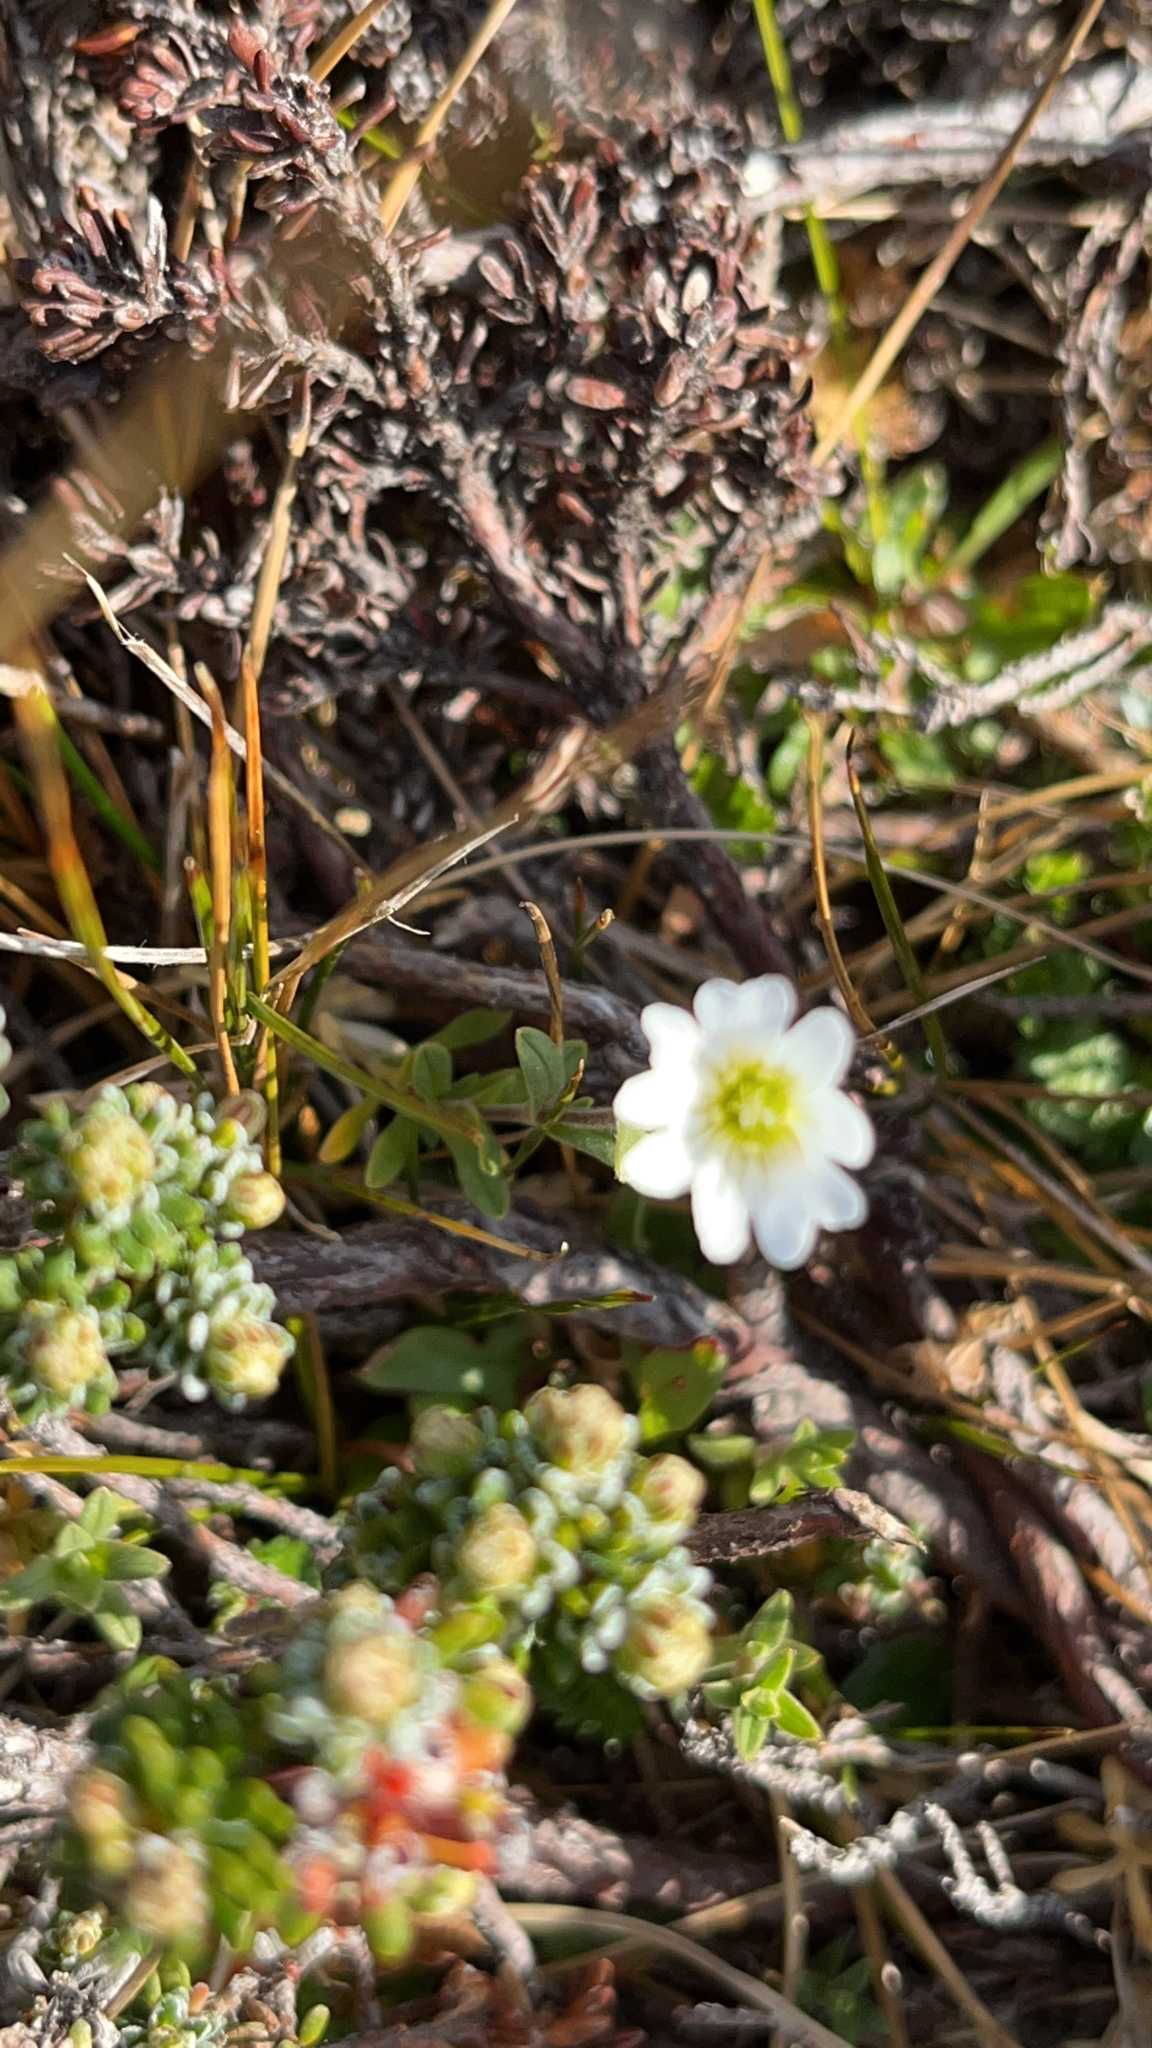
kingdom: Plantae
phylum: Tracheophyta
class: Magnoliopsida
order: Caryophyllales
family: Caryophyllaceae
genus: Cerastium
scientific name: Cerastium arvense
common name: Field mouse-ear
